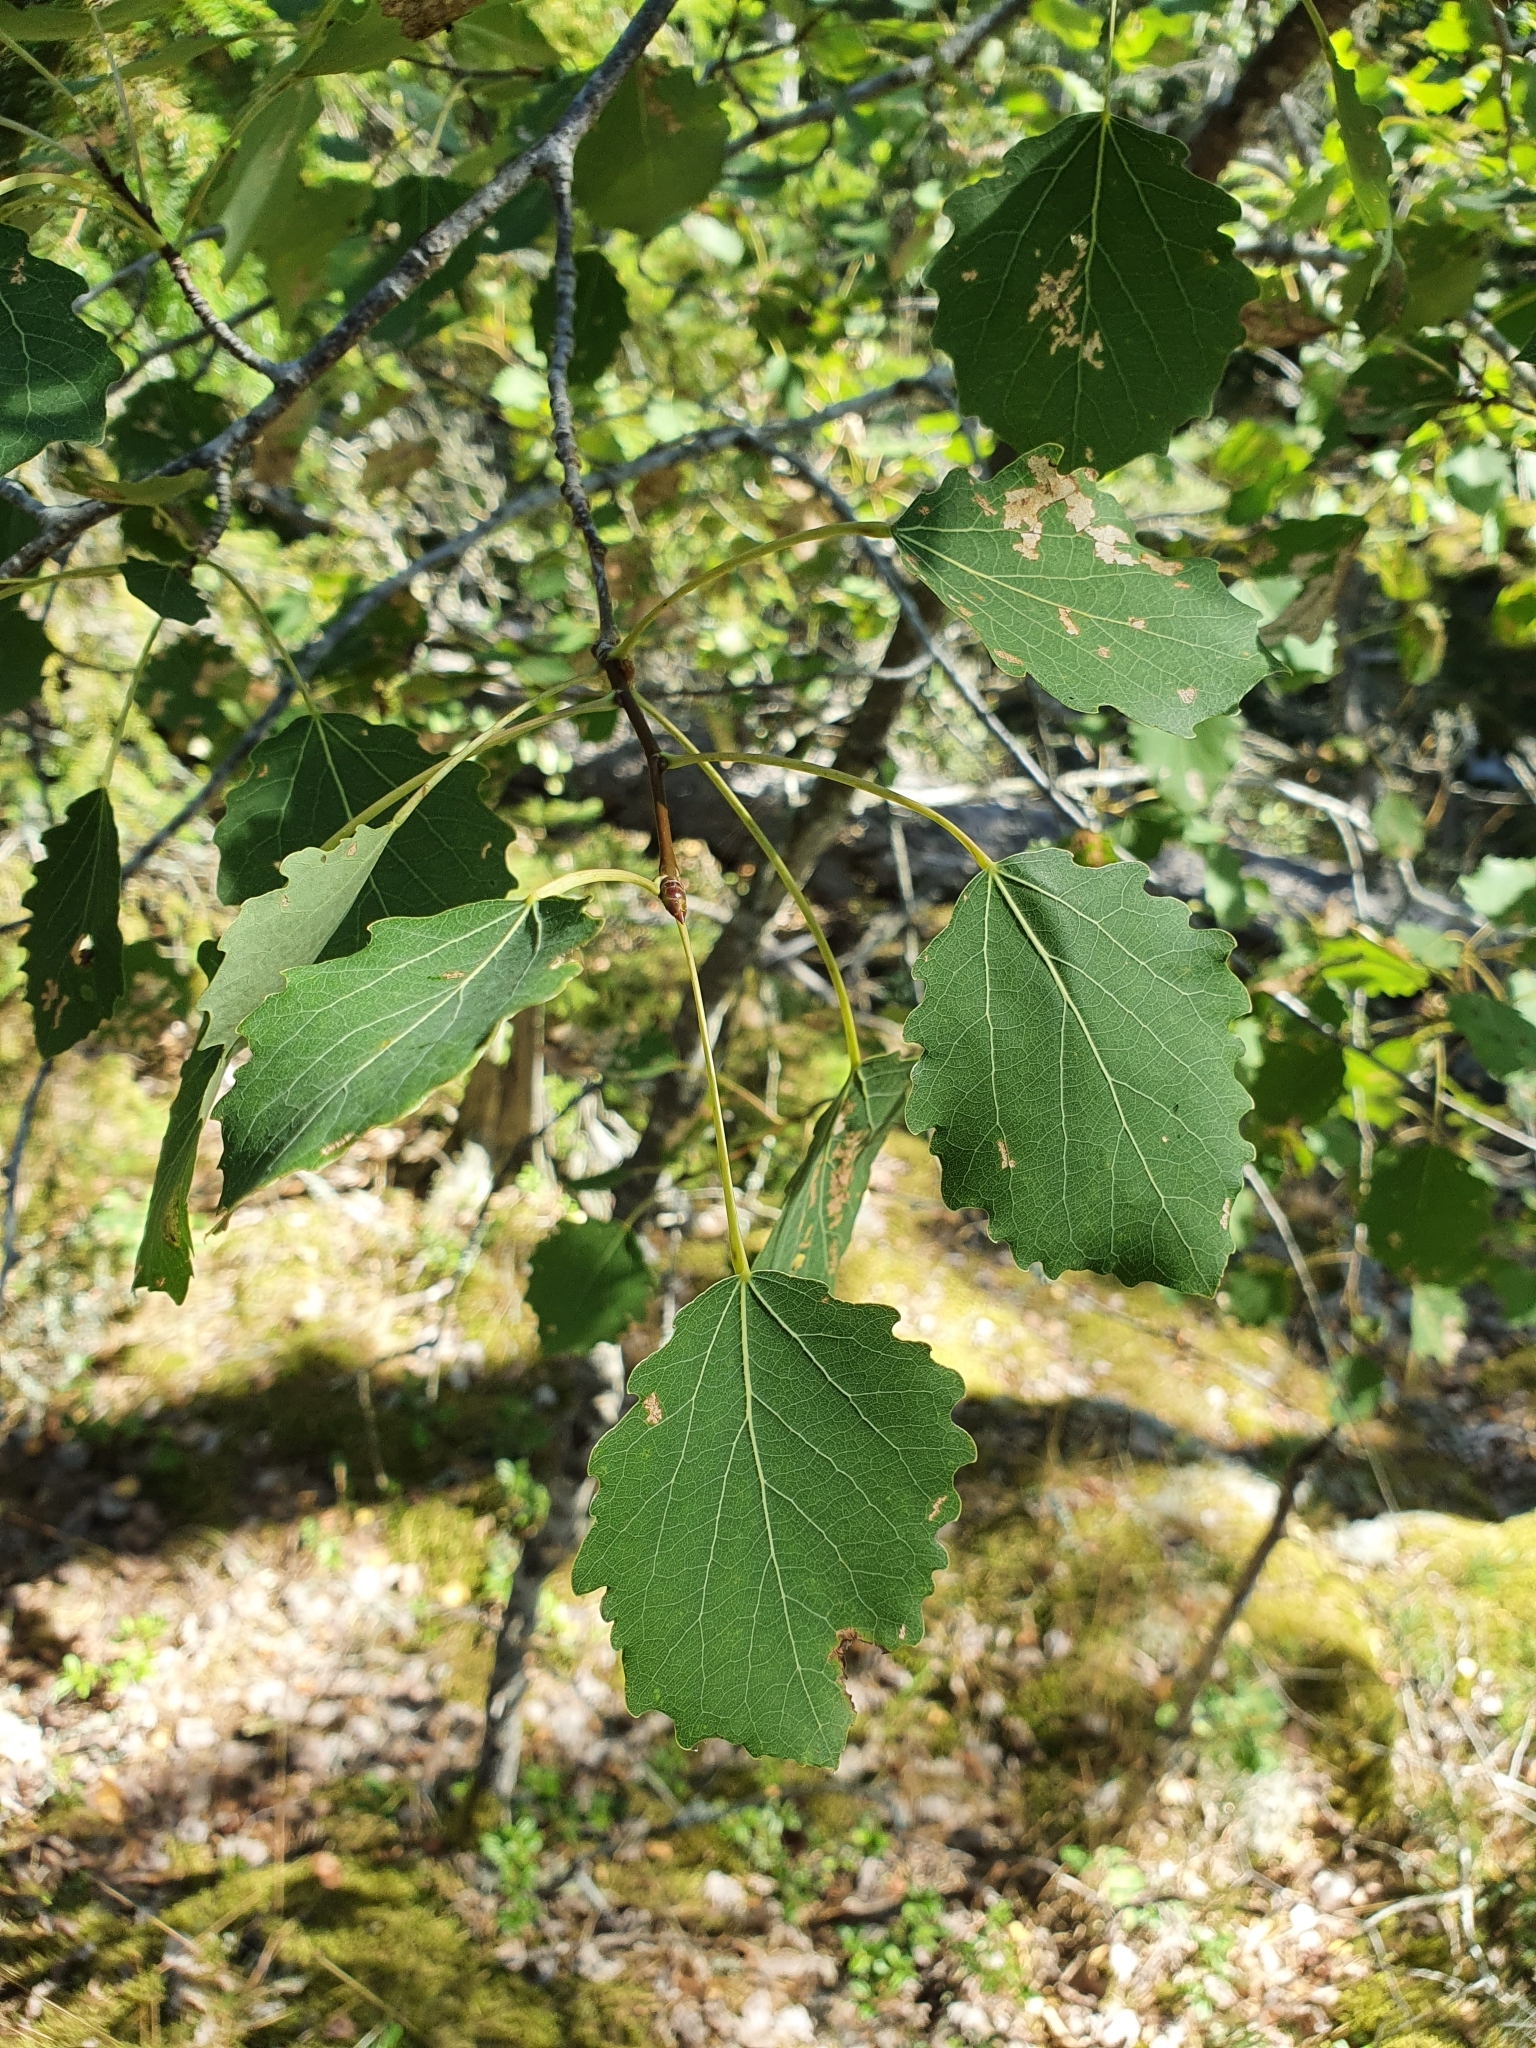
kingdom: Plantae
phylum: Tracheophyta
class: Magnoliopsida
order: Malpighiales
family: Salicaceae
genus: Populus
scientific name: Populus tremula
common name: European aspen
